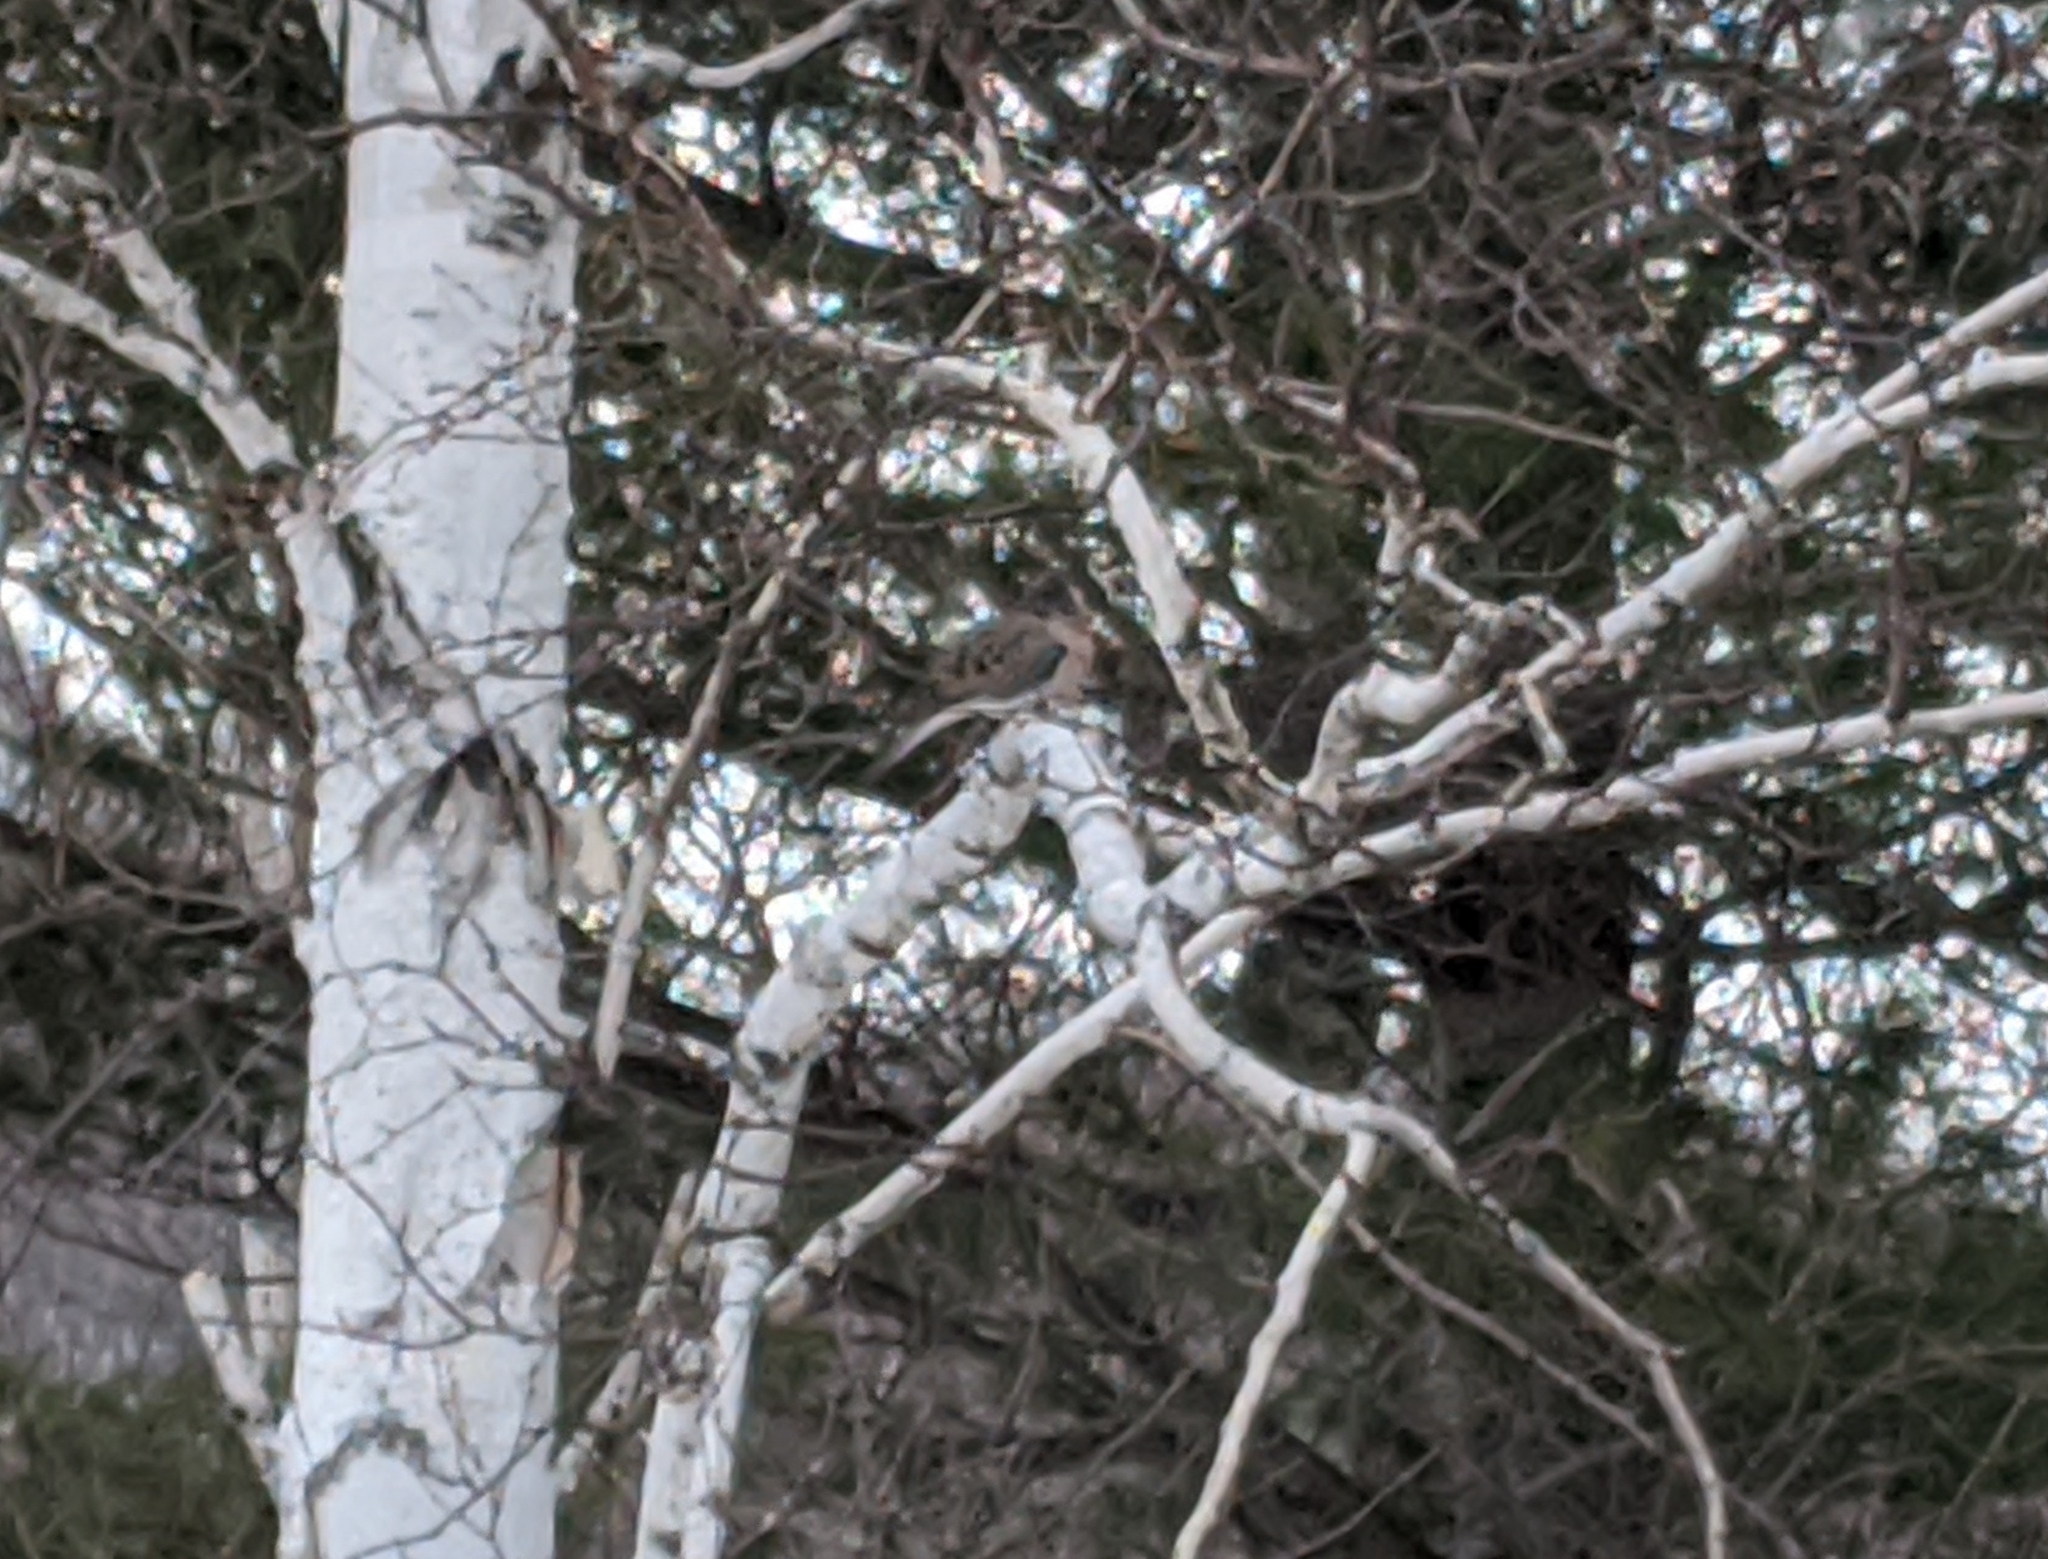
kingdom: Animalia
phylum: Chordata
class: Aves
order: Columbiformes
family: Columbidae
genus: Zenaida
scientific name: Zenaida macroura
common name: Mourning dove
